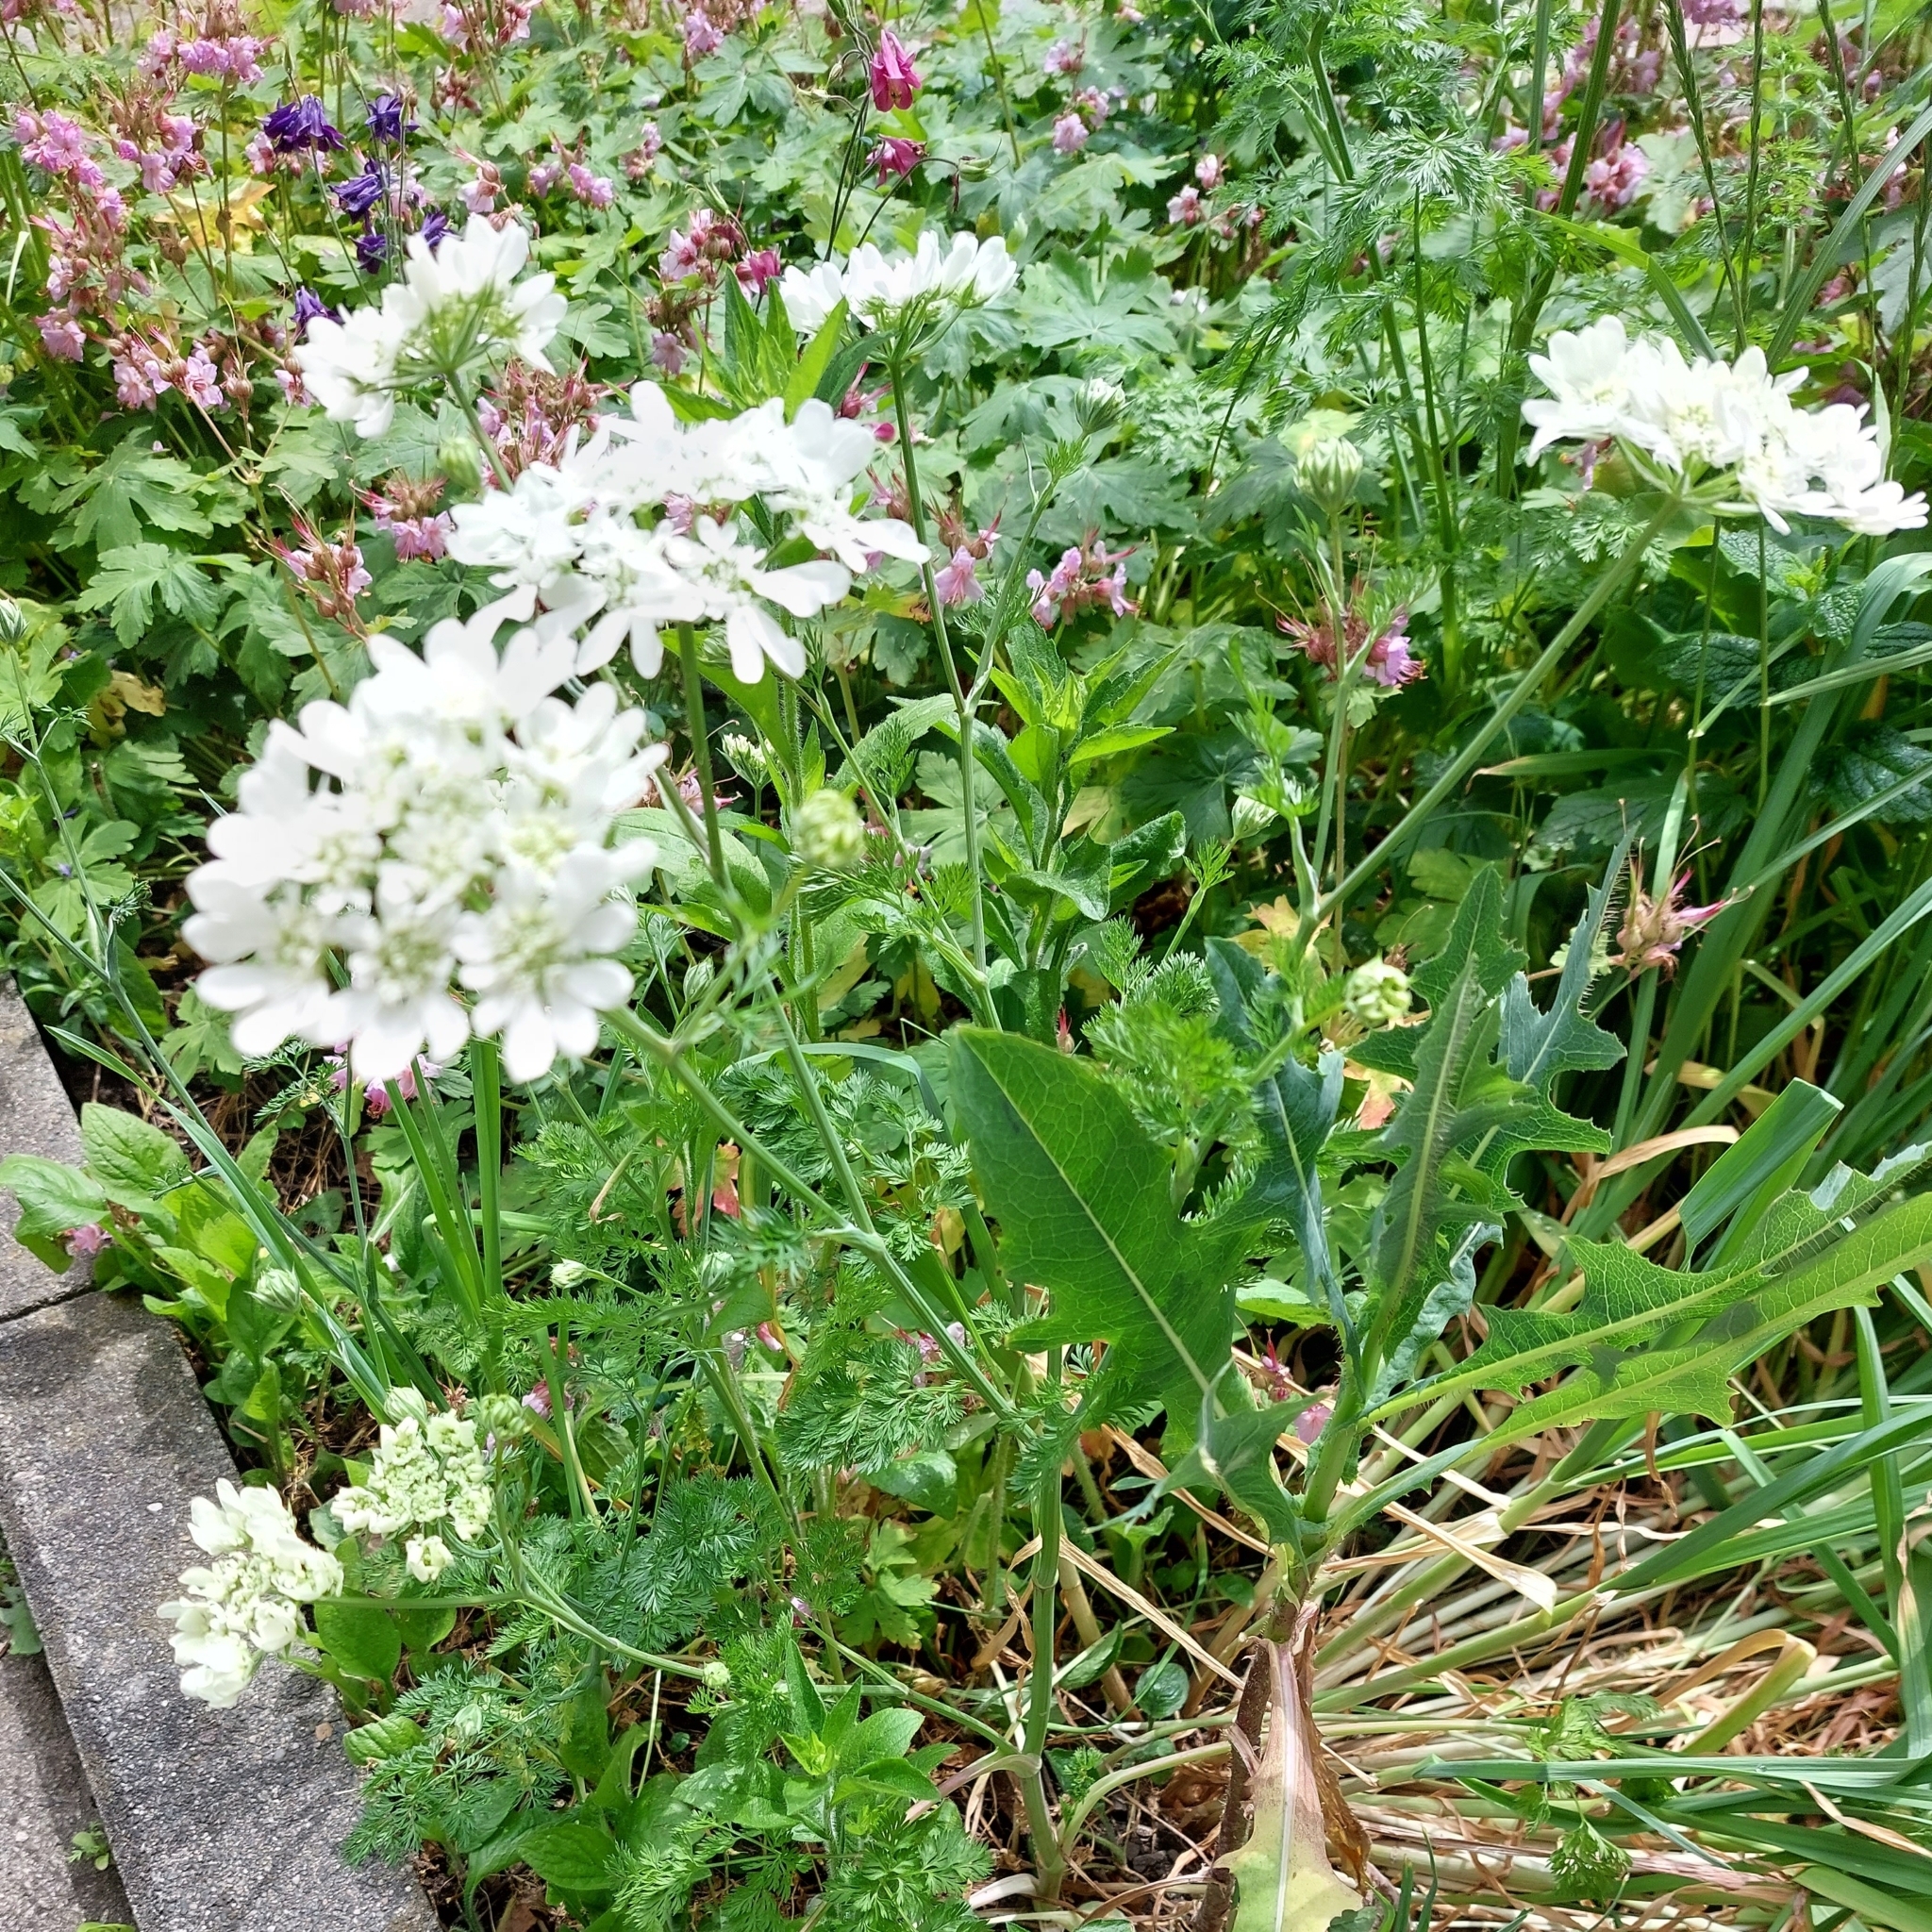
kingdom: Plantae
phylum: Tracheophyta
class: Magnoliopsida
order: Apiales
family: Apiaceae
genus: Orlaya
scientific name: Orlaya grandiflora
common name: White lace flower
